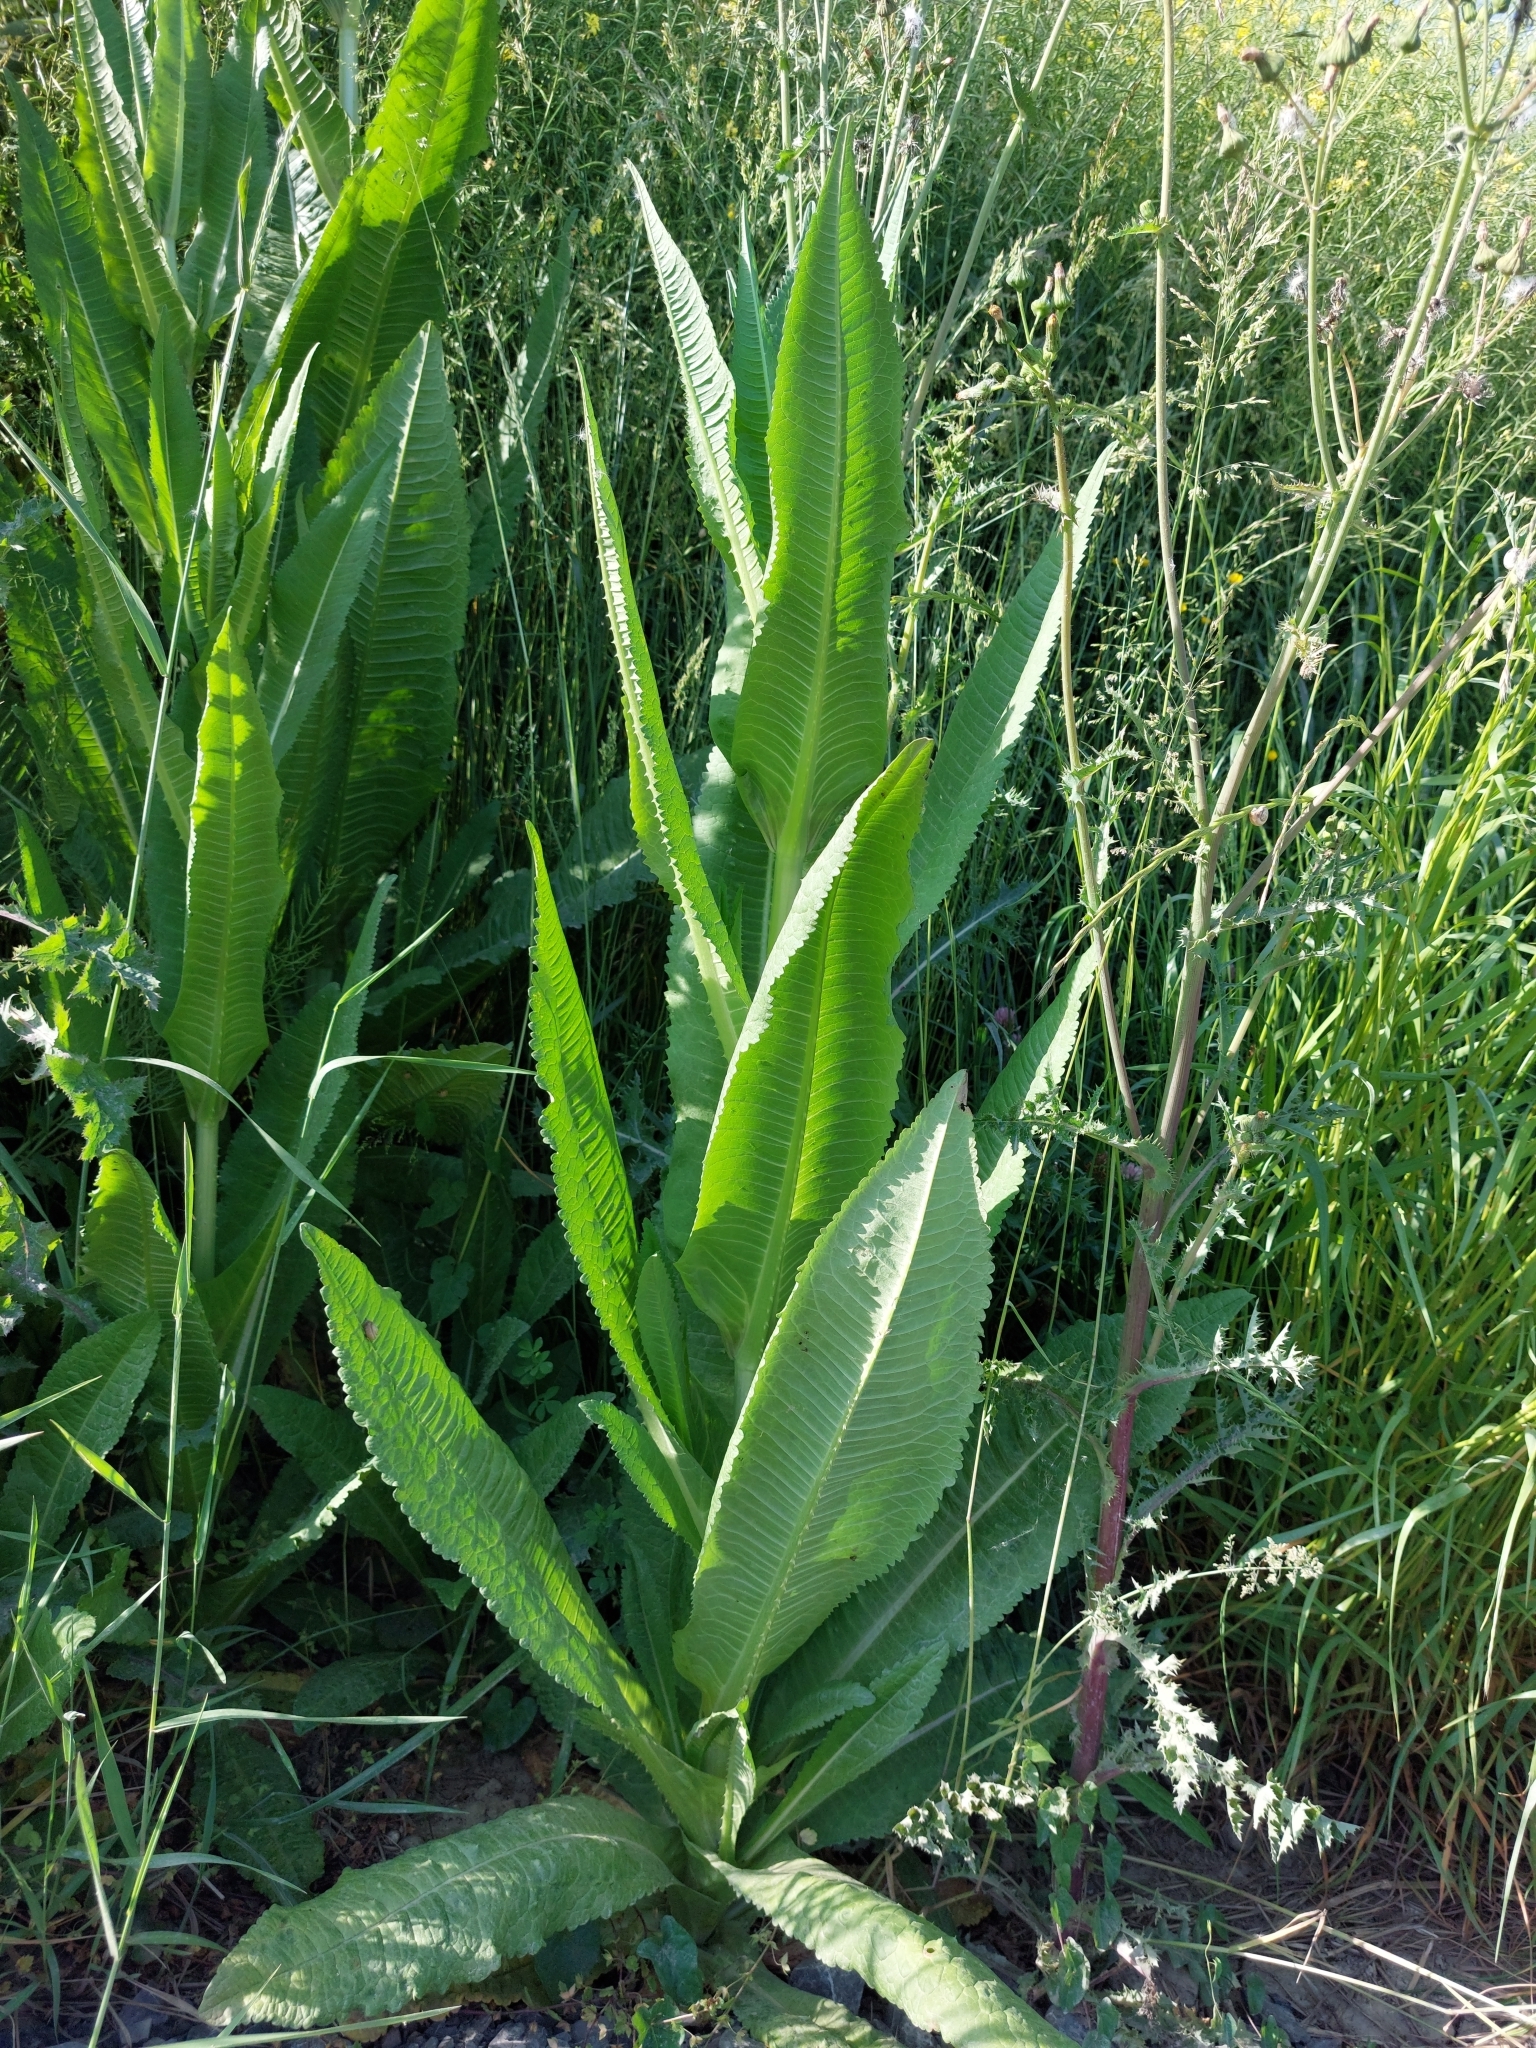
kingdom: Plantae
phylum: Tracheophyta
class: Magnoliopsida
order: Dipsacales
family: Caprifoliaceae
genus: Dipsacus
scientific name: Dipsacus fullonum
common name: Teasel
